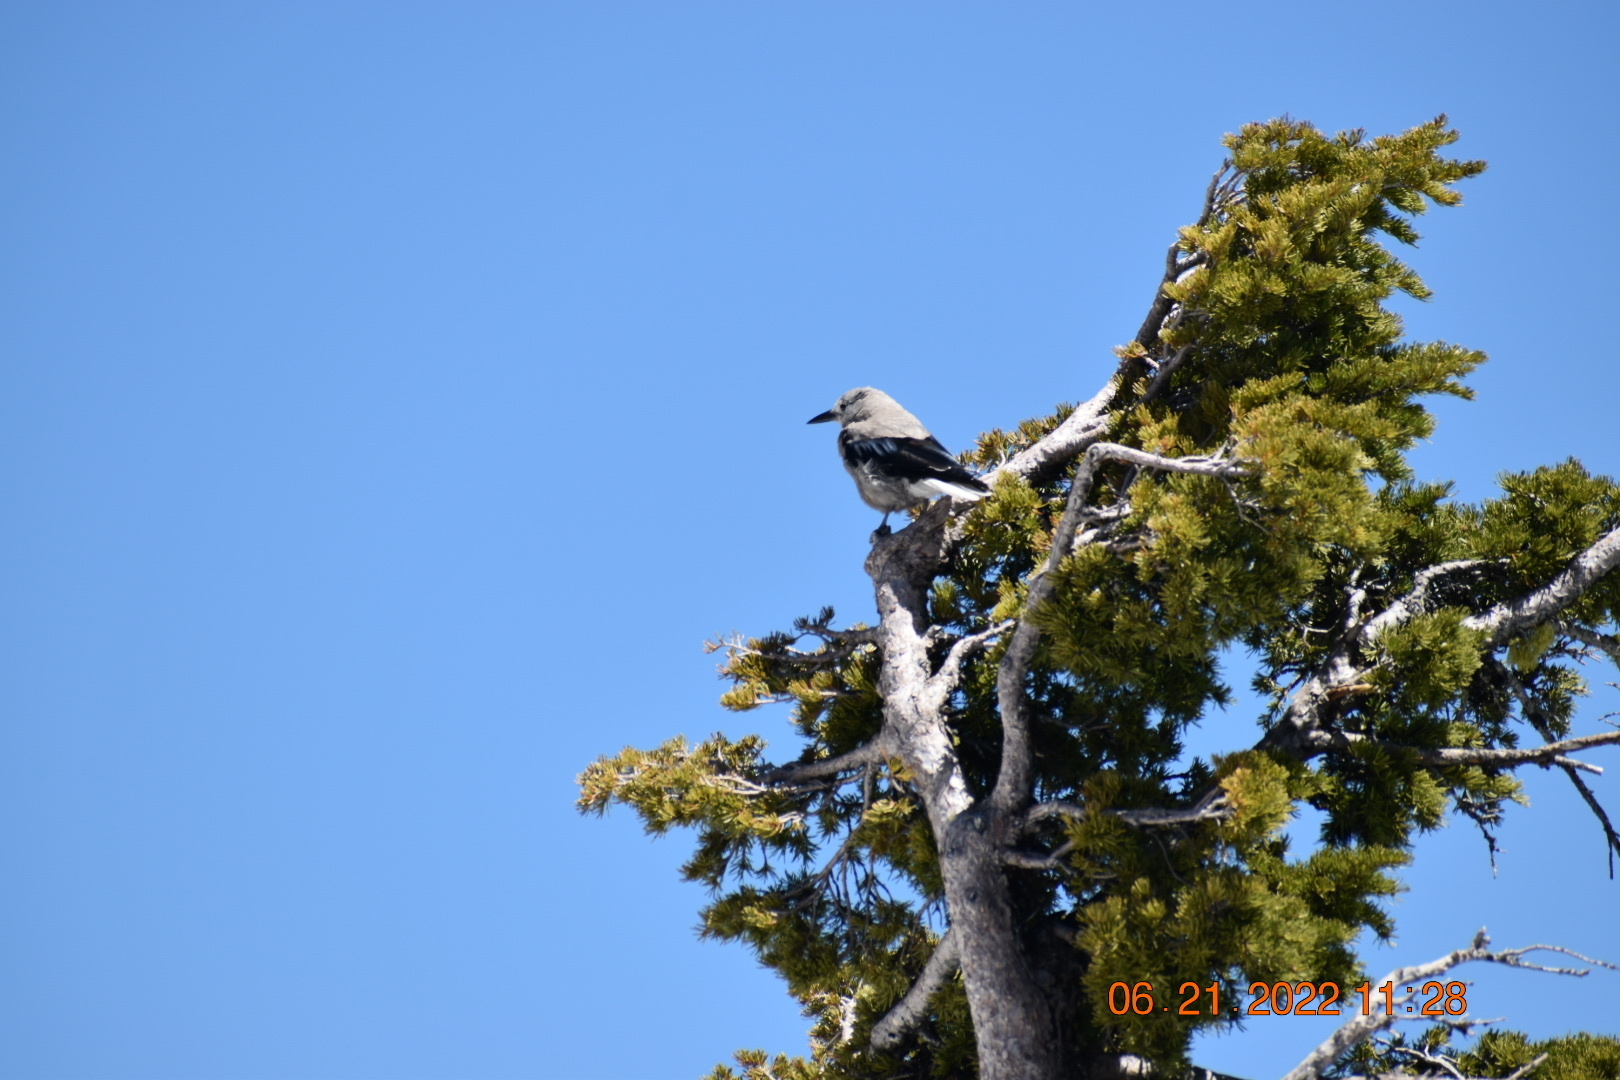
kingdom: Animalia
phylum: Chordata
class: Aves
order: Passeriformes
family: Corvidae
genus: Nucifraga
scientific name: Nucifraga columbiana
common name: Clark's nutcracker
